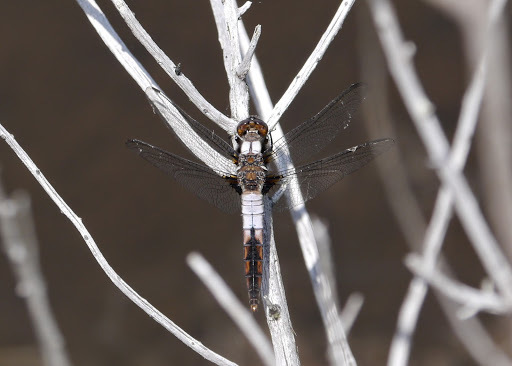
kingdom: Animalia
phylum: Arthropoda
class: Insecta
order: Odonata
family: Libellulidae
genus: Ladona
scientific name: Ladona julia
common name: Chalk-fronted corporal
